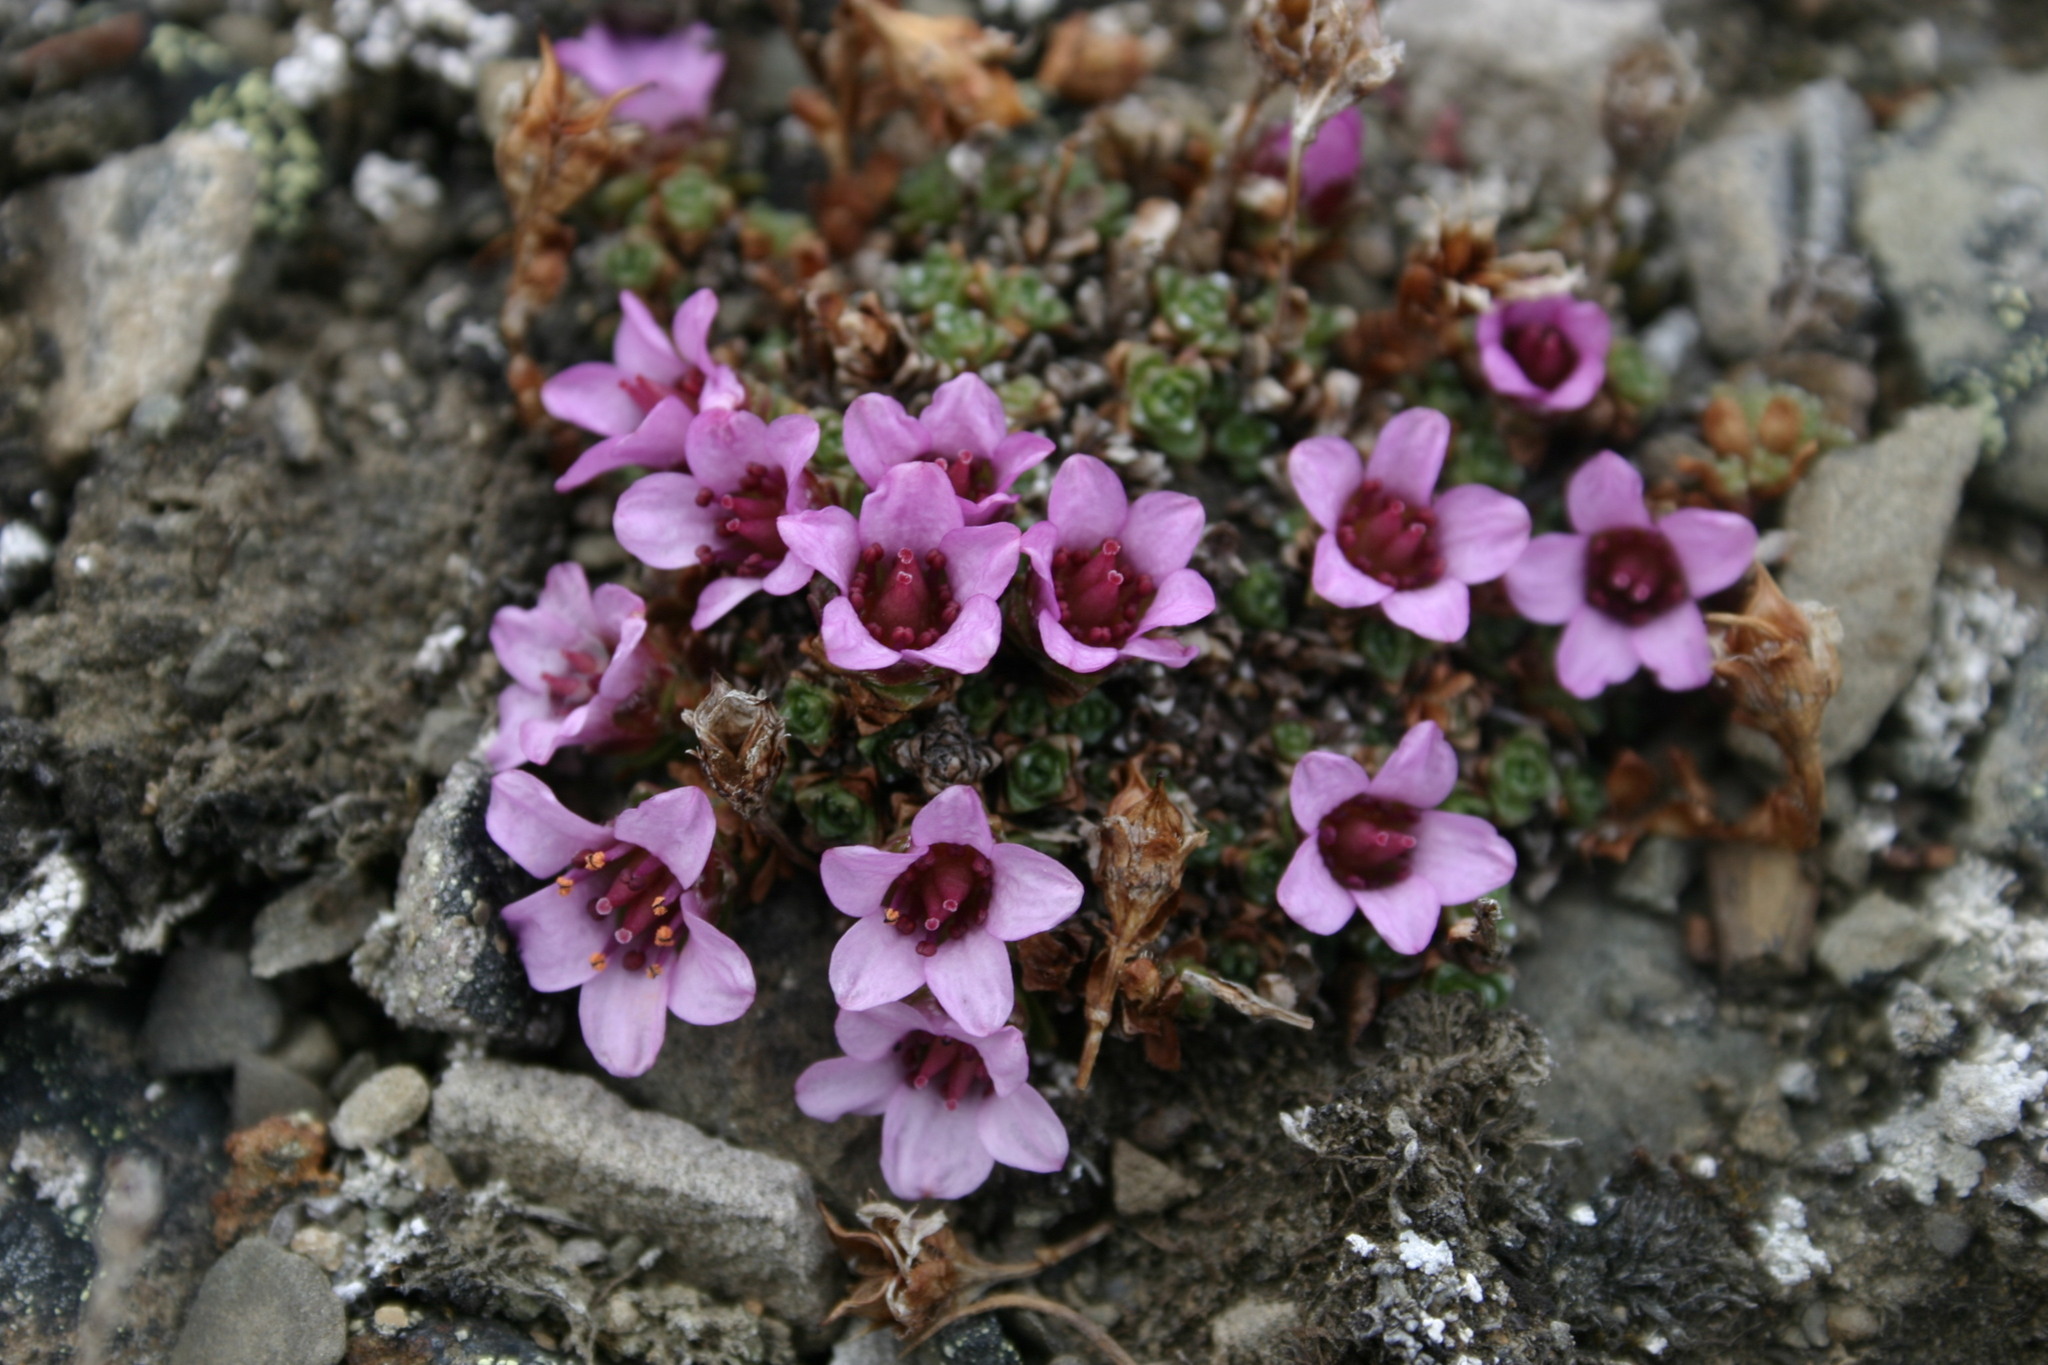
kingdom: Plantae
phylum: Tracheophyta
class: Magnoliopsida
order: Saxifragales
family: Saxifragaceae
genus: Saxifraga
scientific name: Saxifraga oppositifolia
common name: Purple saxifrage
